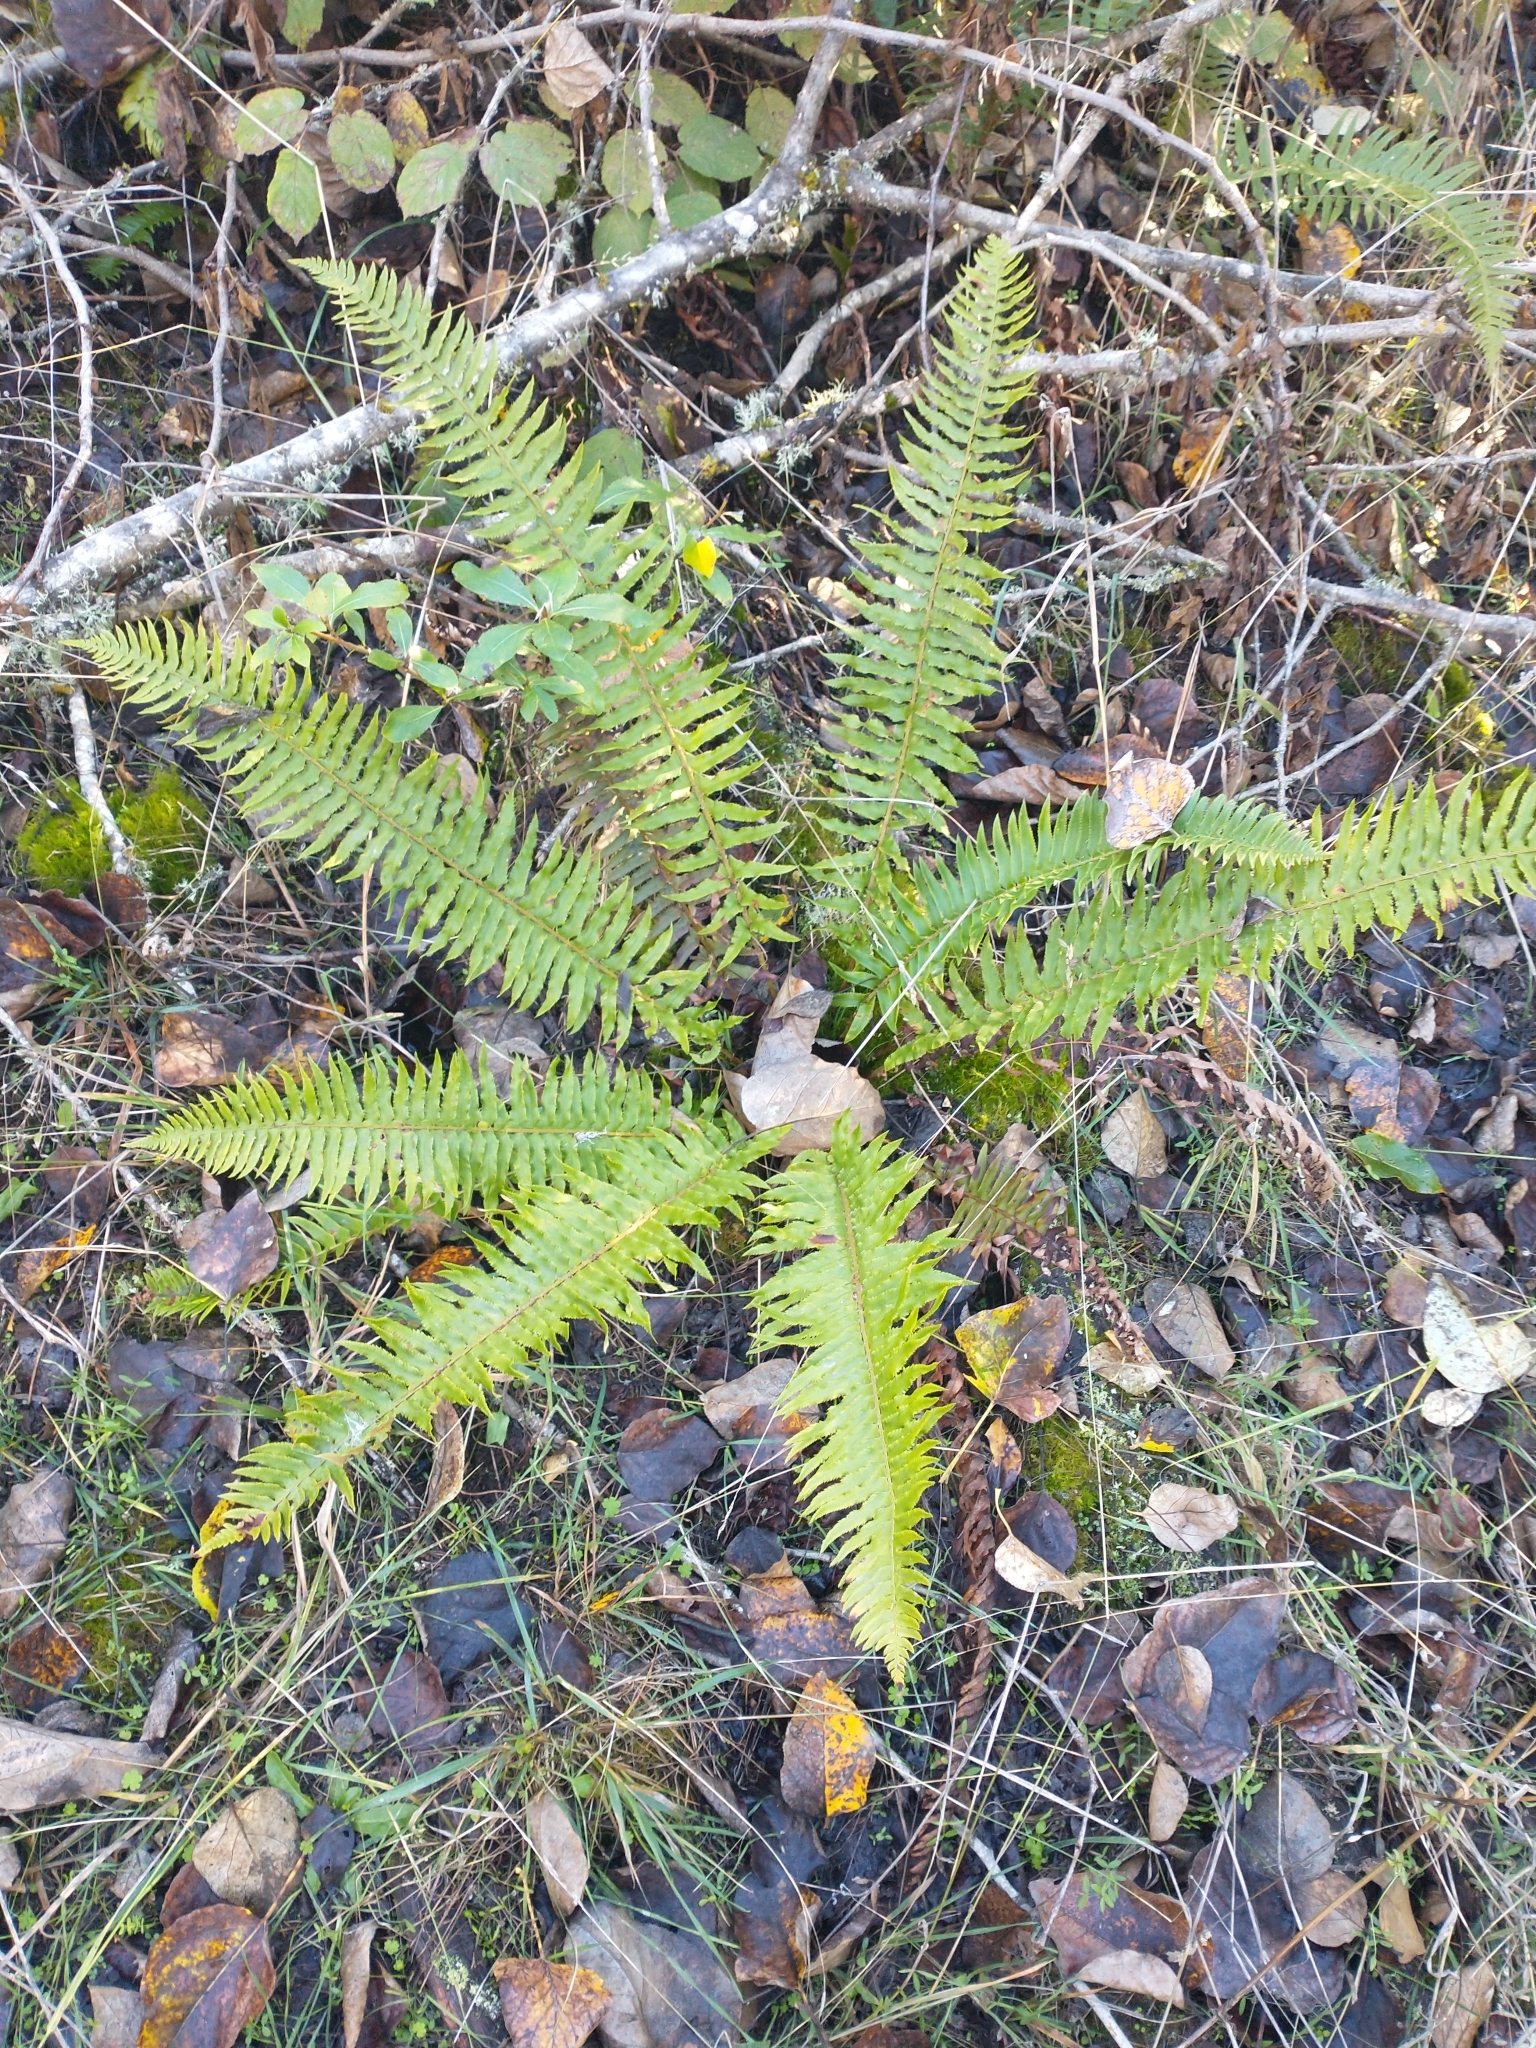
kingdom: Plantae
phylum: Tracheophyta
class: Polypodiopsida
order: Polypodiales
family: Dryopteridaceae
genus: Polystichum
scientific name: Polystichum munitum
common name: Western sword-fern
